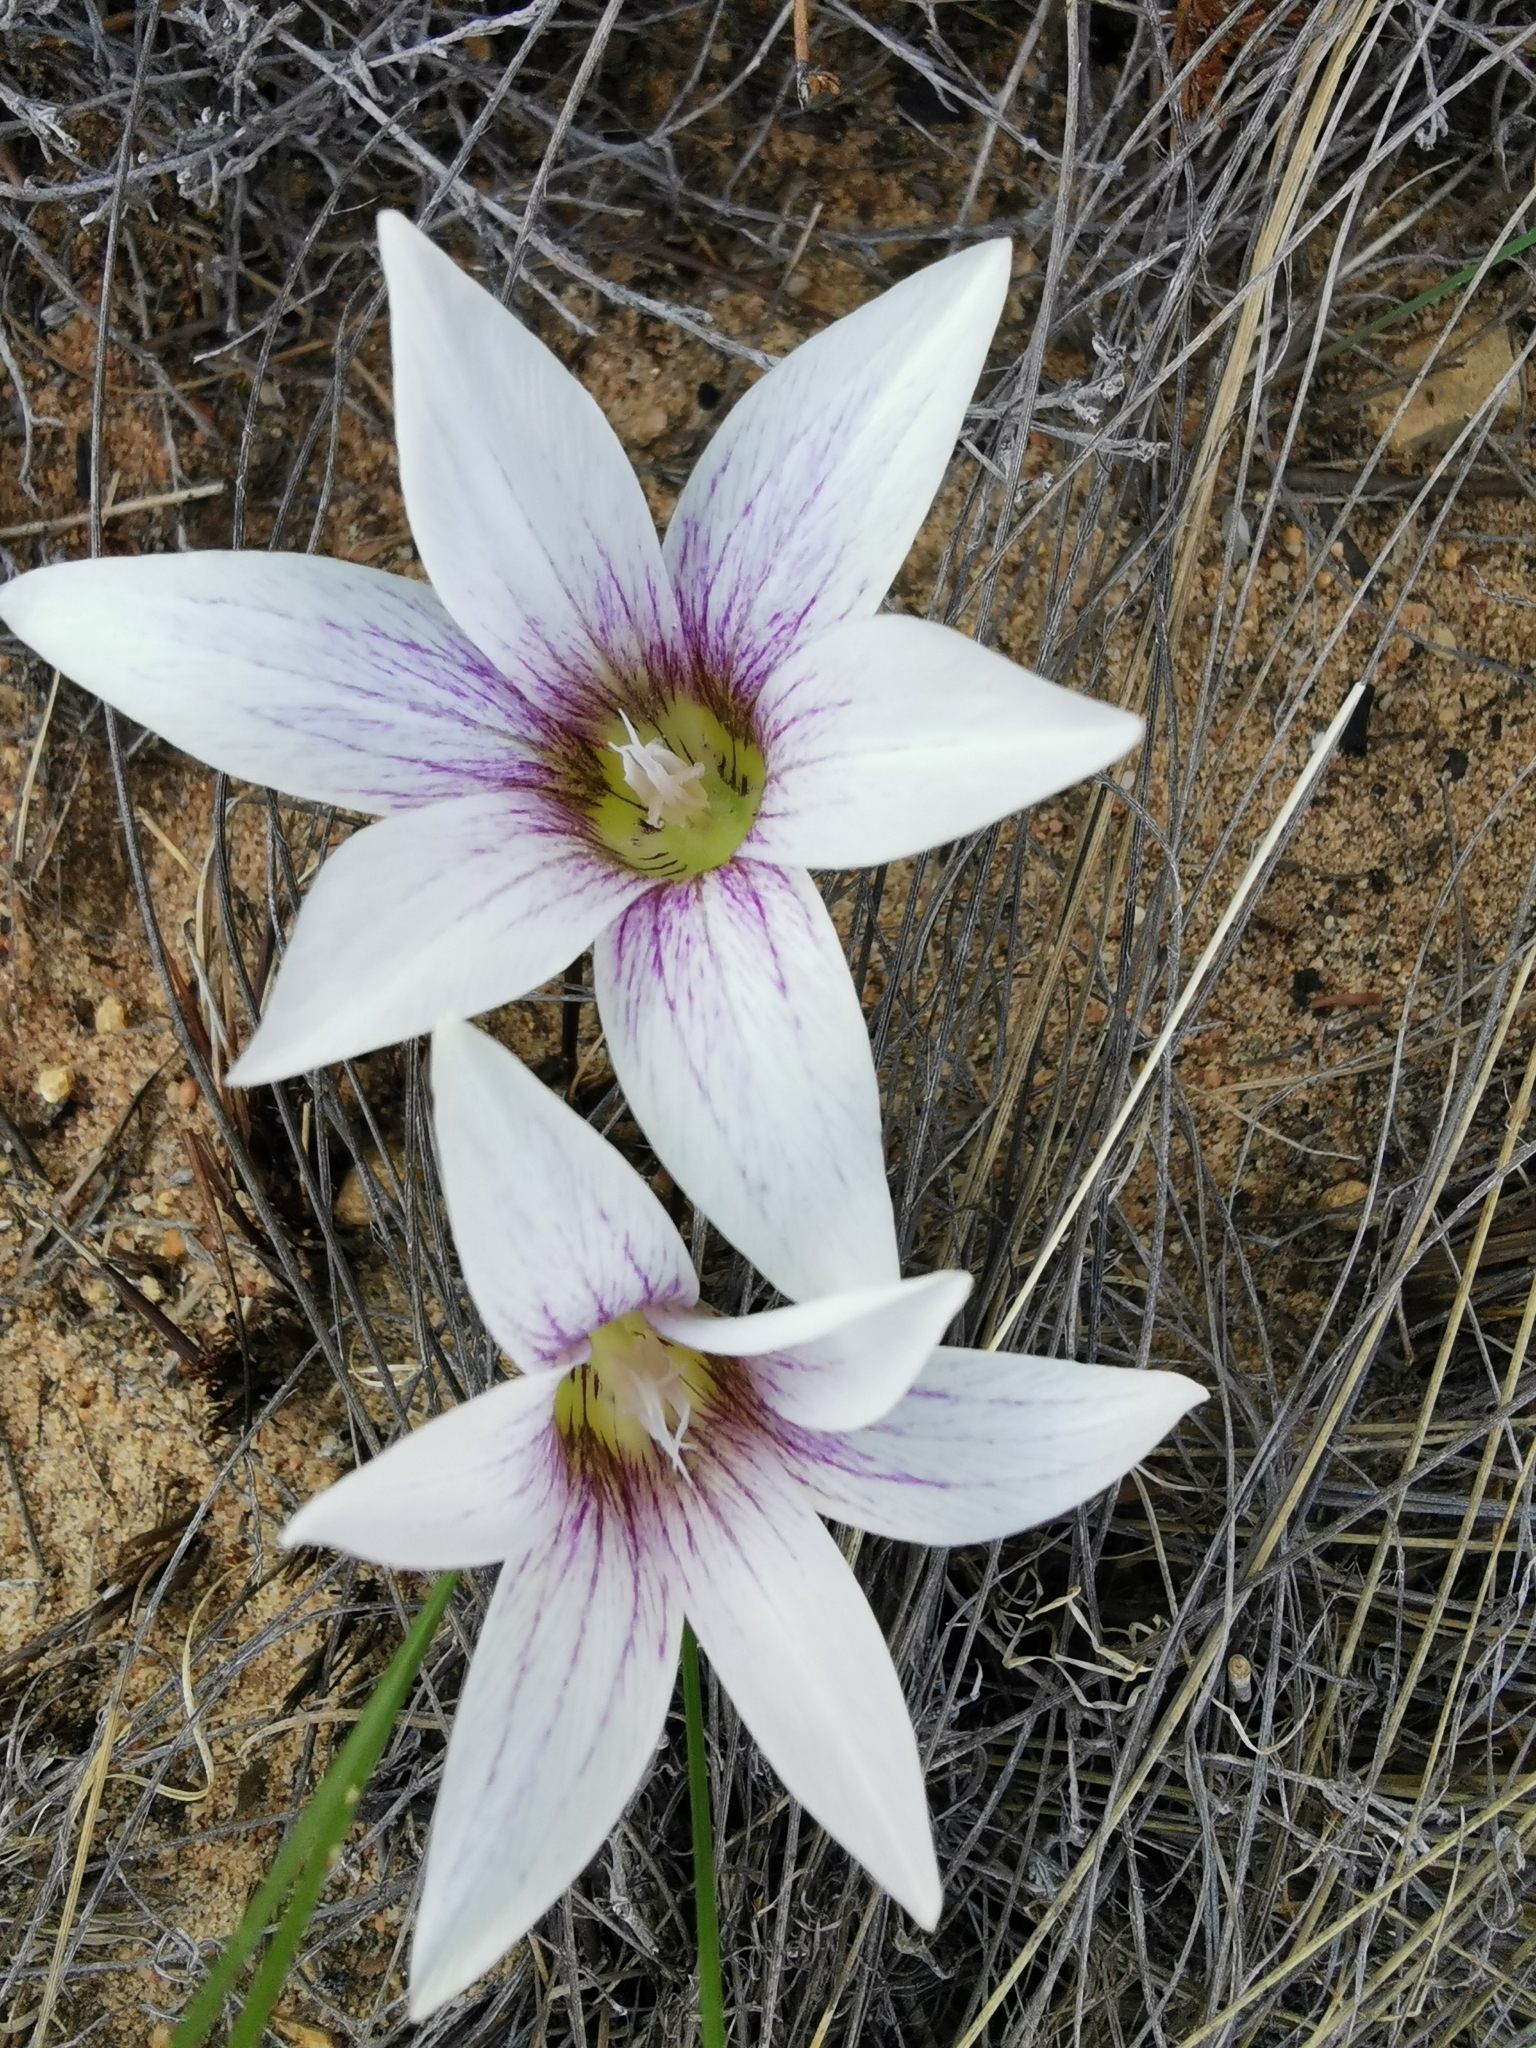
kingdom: Plantae
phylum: Tracheophyta
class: Liliopsida
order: Asparagales
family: Iridaceae
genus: Romulea
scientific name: Romulea flexuosa
